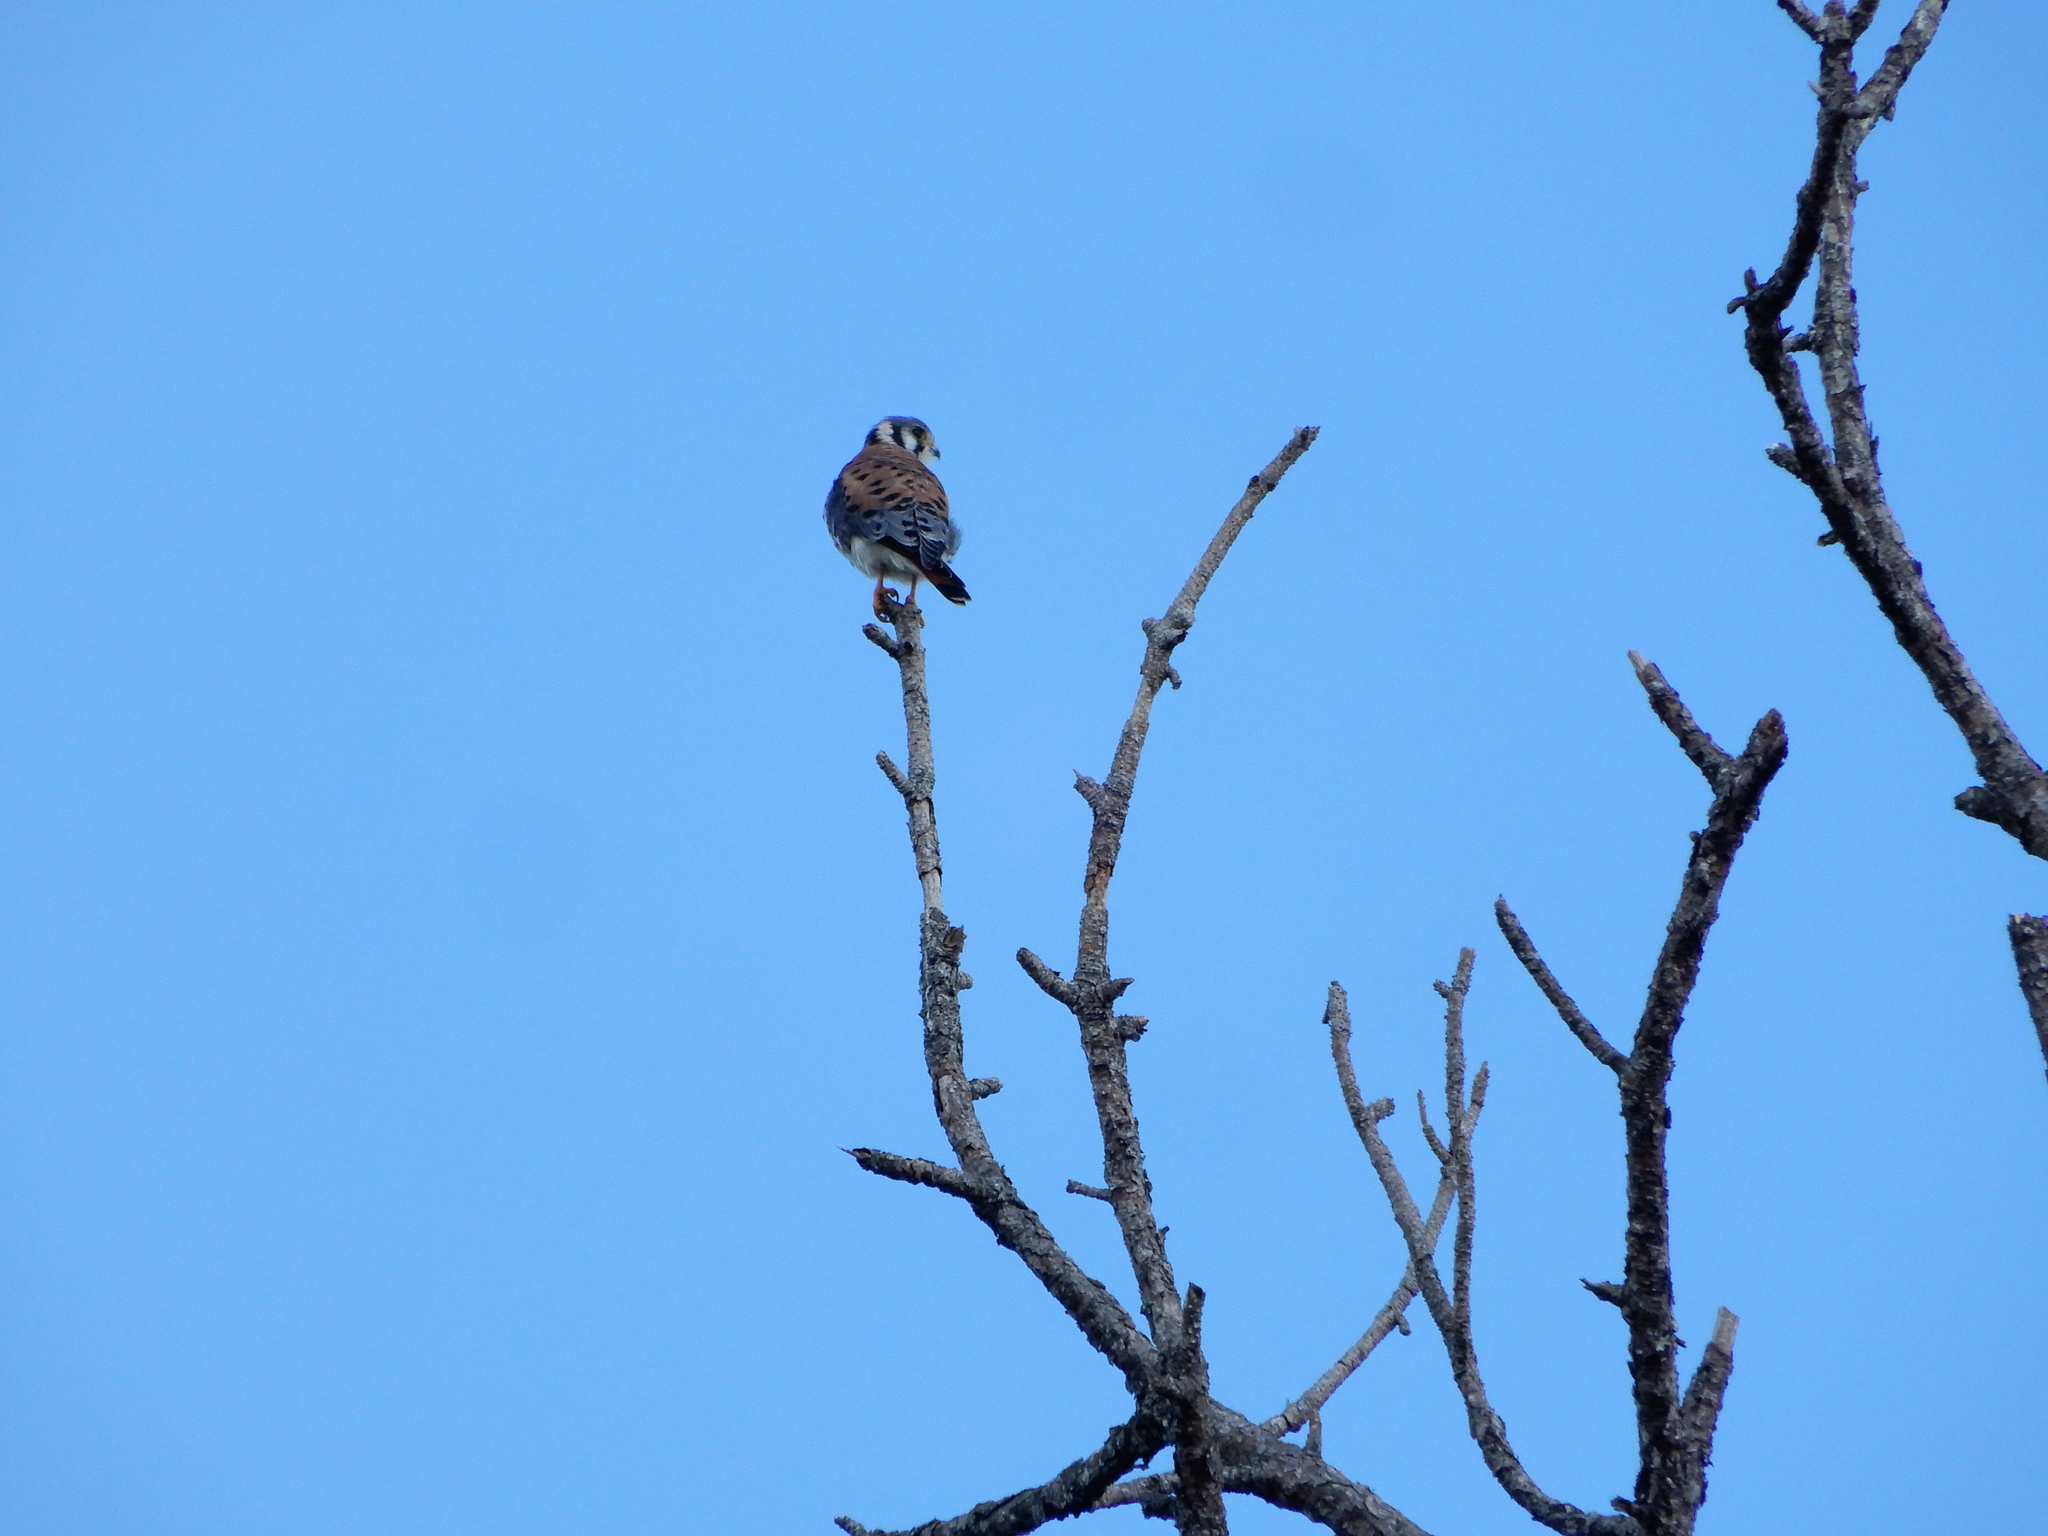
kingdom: Animalia
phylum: Chordata
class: Aves
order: Falconiformes
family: Falconidae
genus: Falco
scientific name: Falco sparverius
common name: American kestrel
